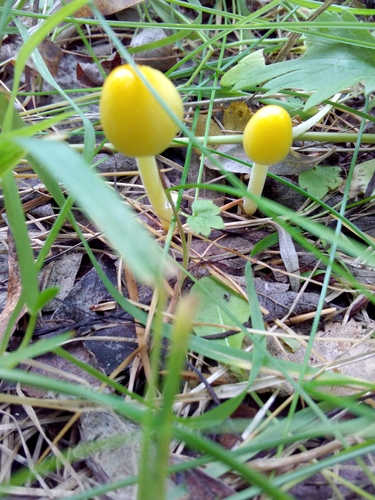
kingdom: Fungi
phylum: Basidiomycota
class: Agaricomycetes
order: Agaricales
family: Bolbitiaceae
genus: Bolbitius
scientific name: Bolbitius titubans
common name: Yellow fieldcap
